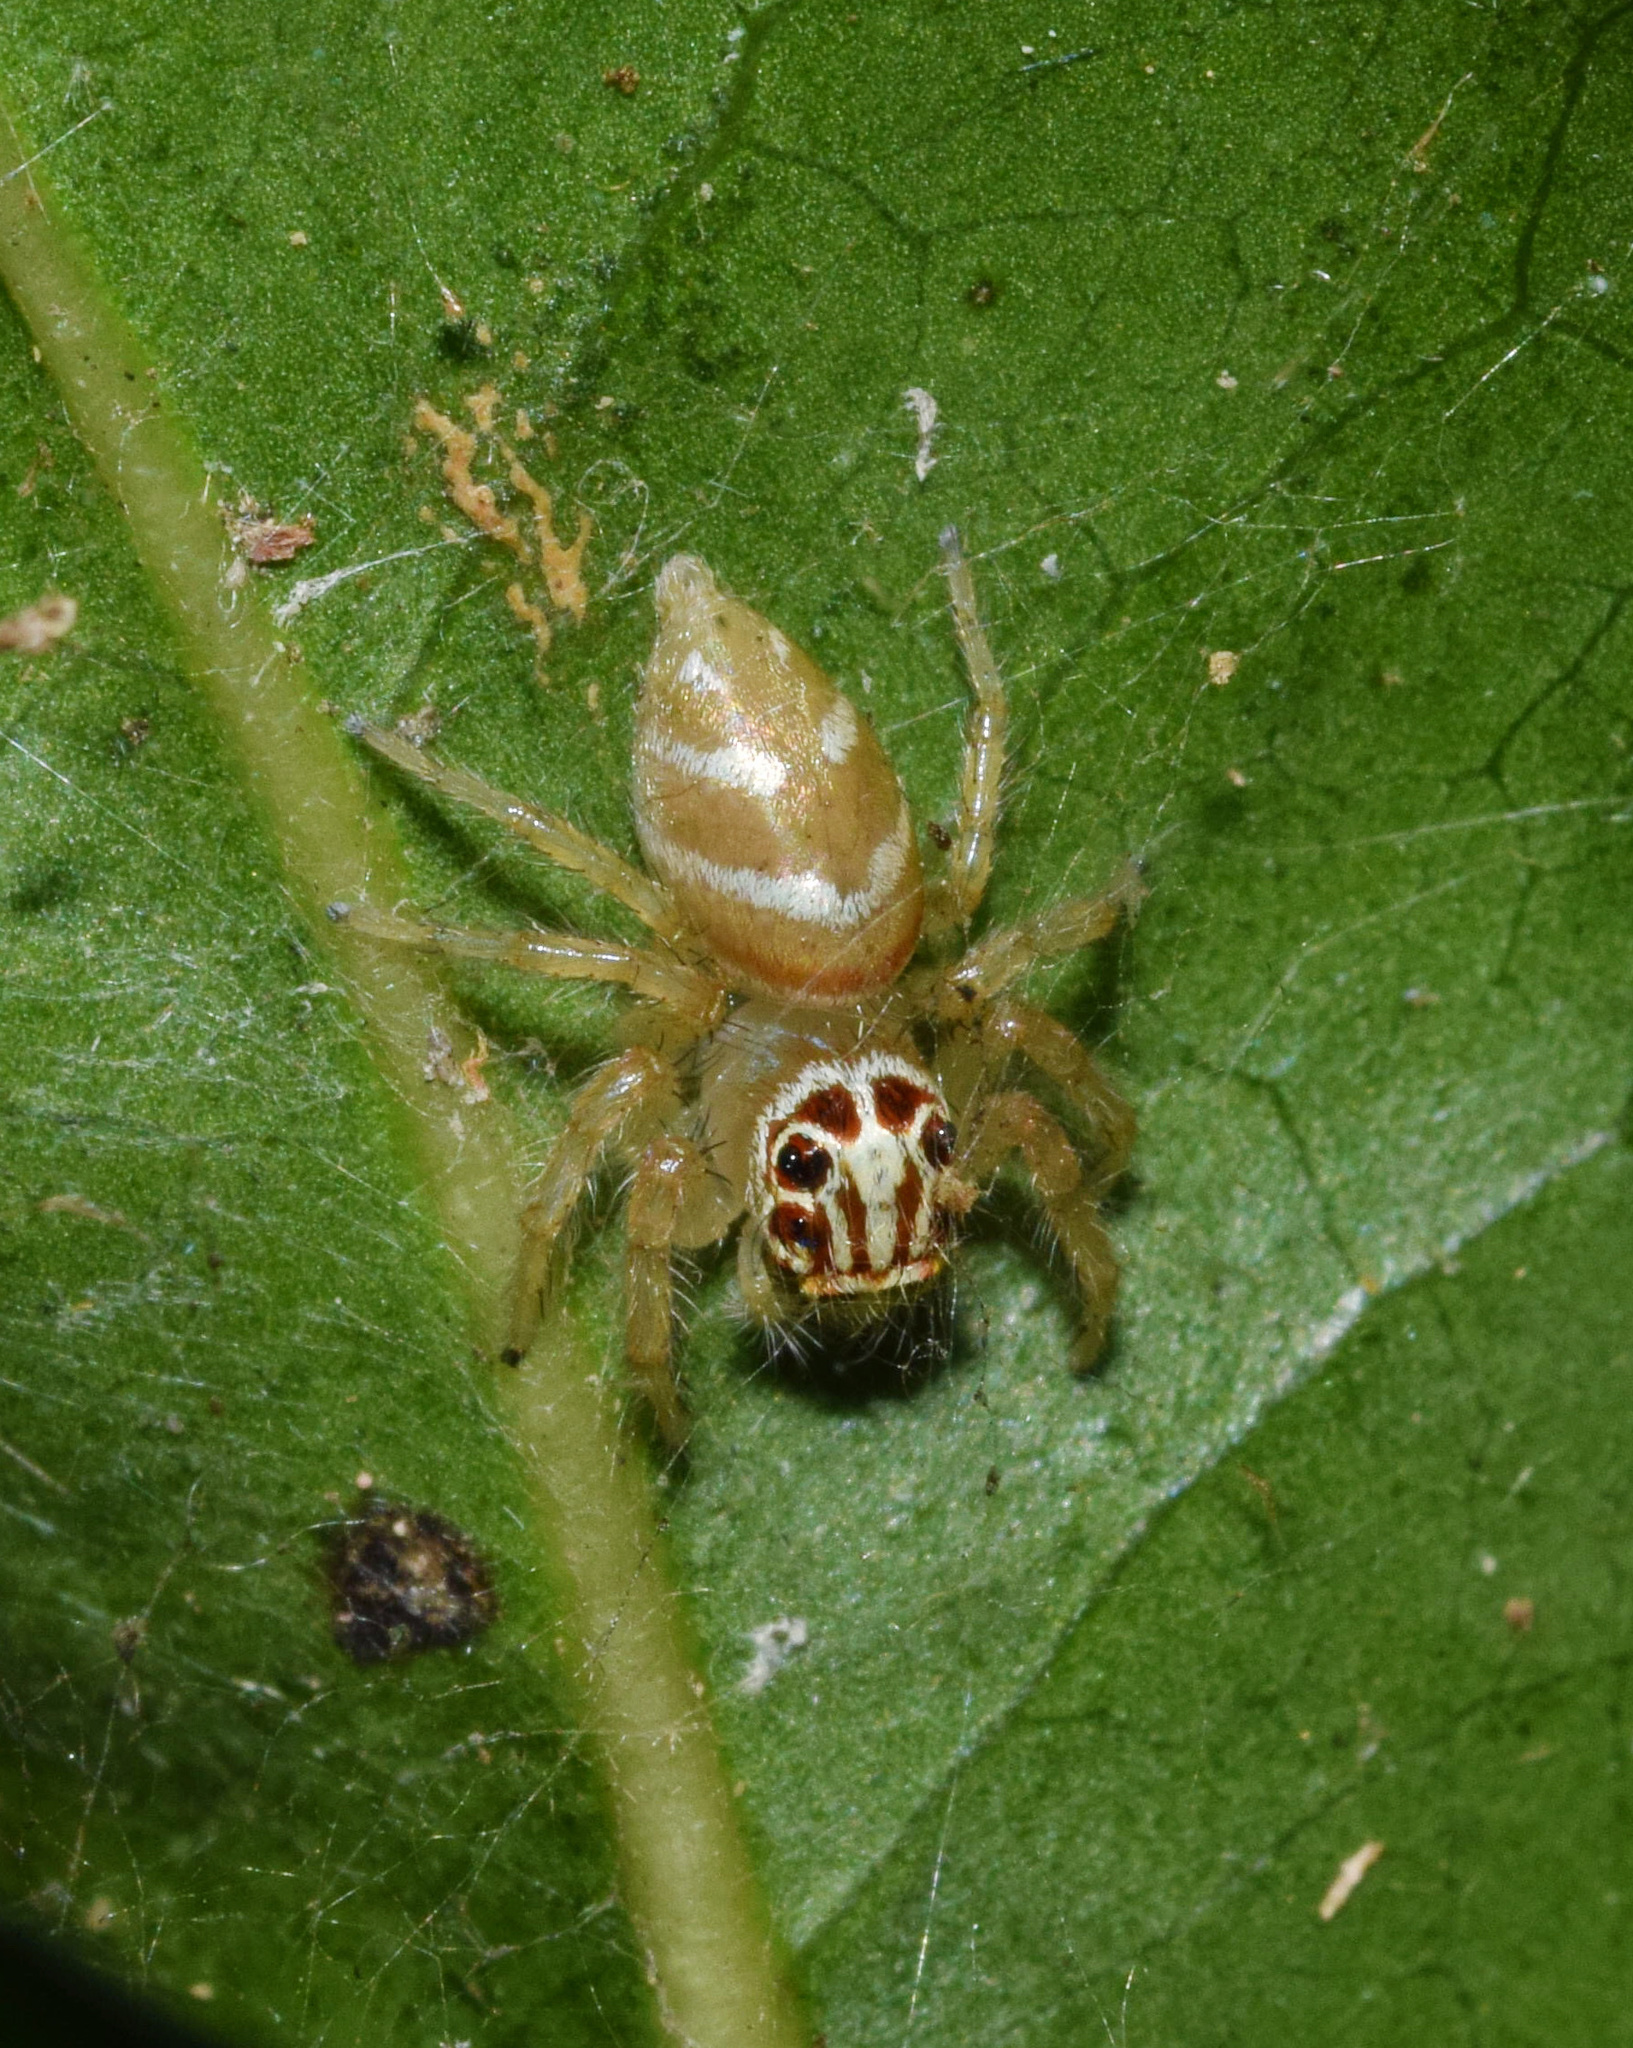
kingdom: Animalia
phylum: Arthropoda
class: Arachnida
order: Araneae
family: Salticidae
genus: Brancus
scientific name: Brancus mustelus
